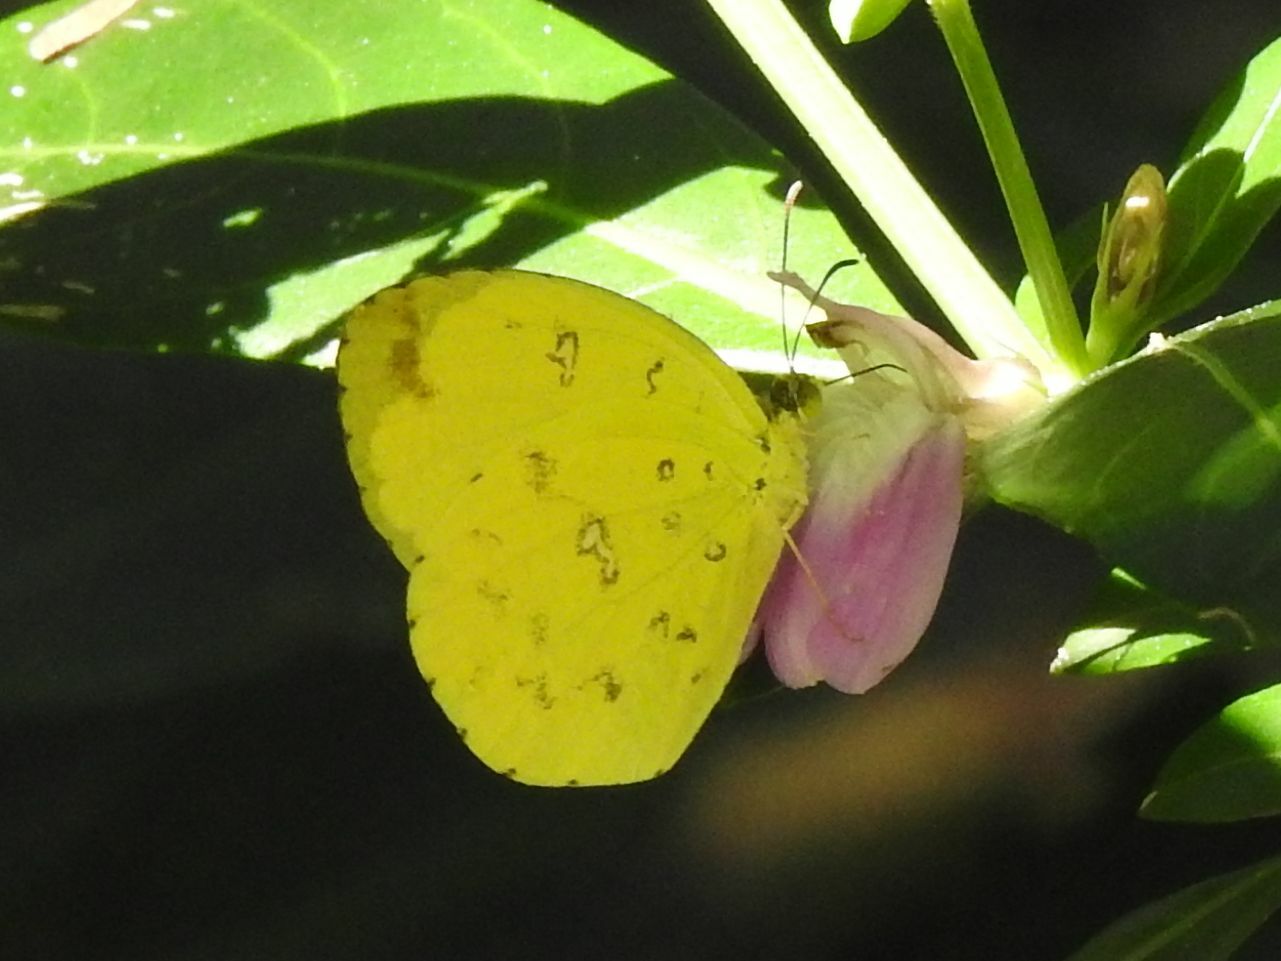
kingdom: Animalia
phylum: Arthropoda
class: Insecta
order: Lepidoptera
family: Pieridae
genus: Eurema
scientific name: Eurema floricola
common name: Malagasy grass yellow
